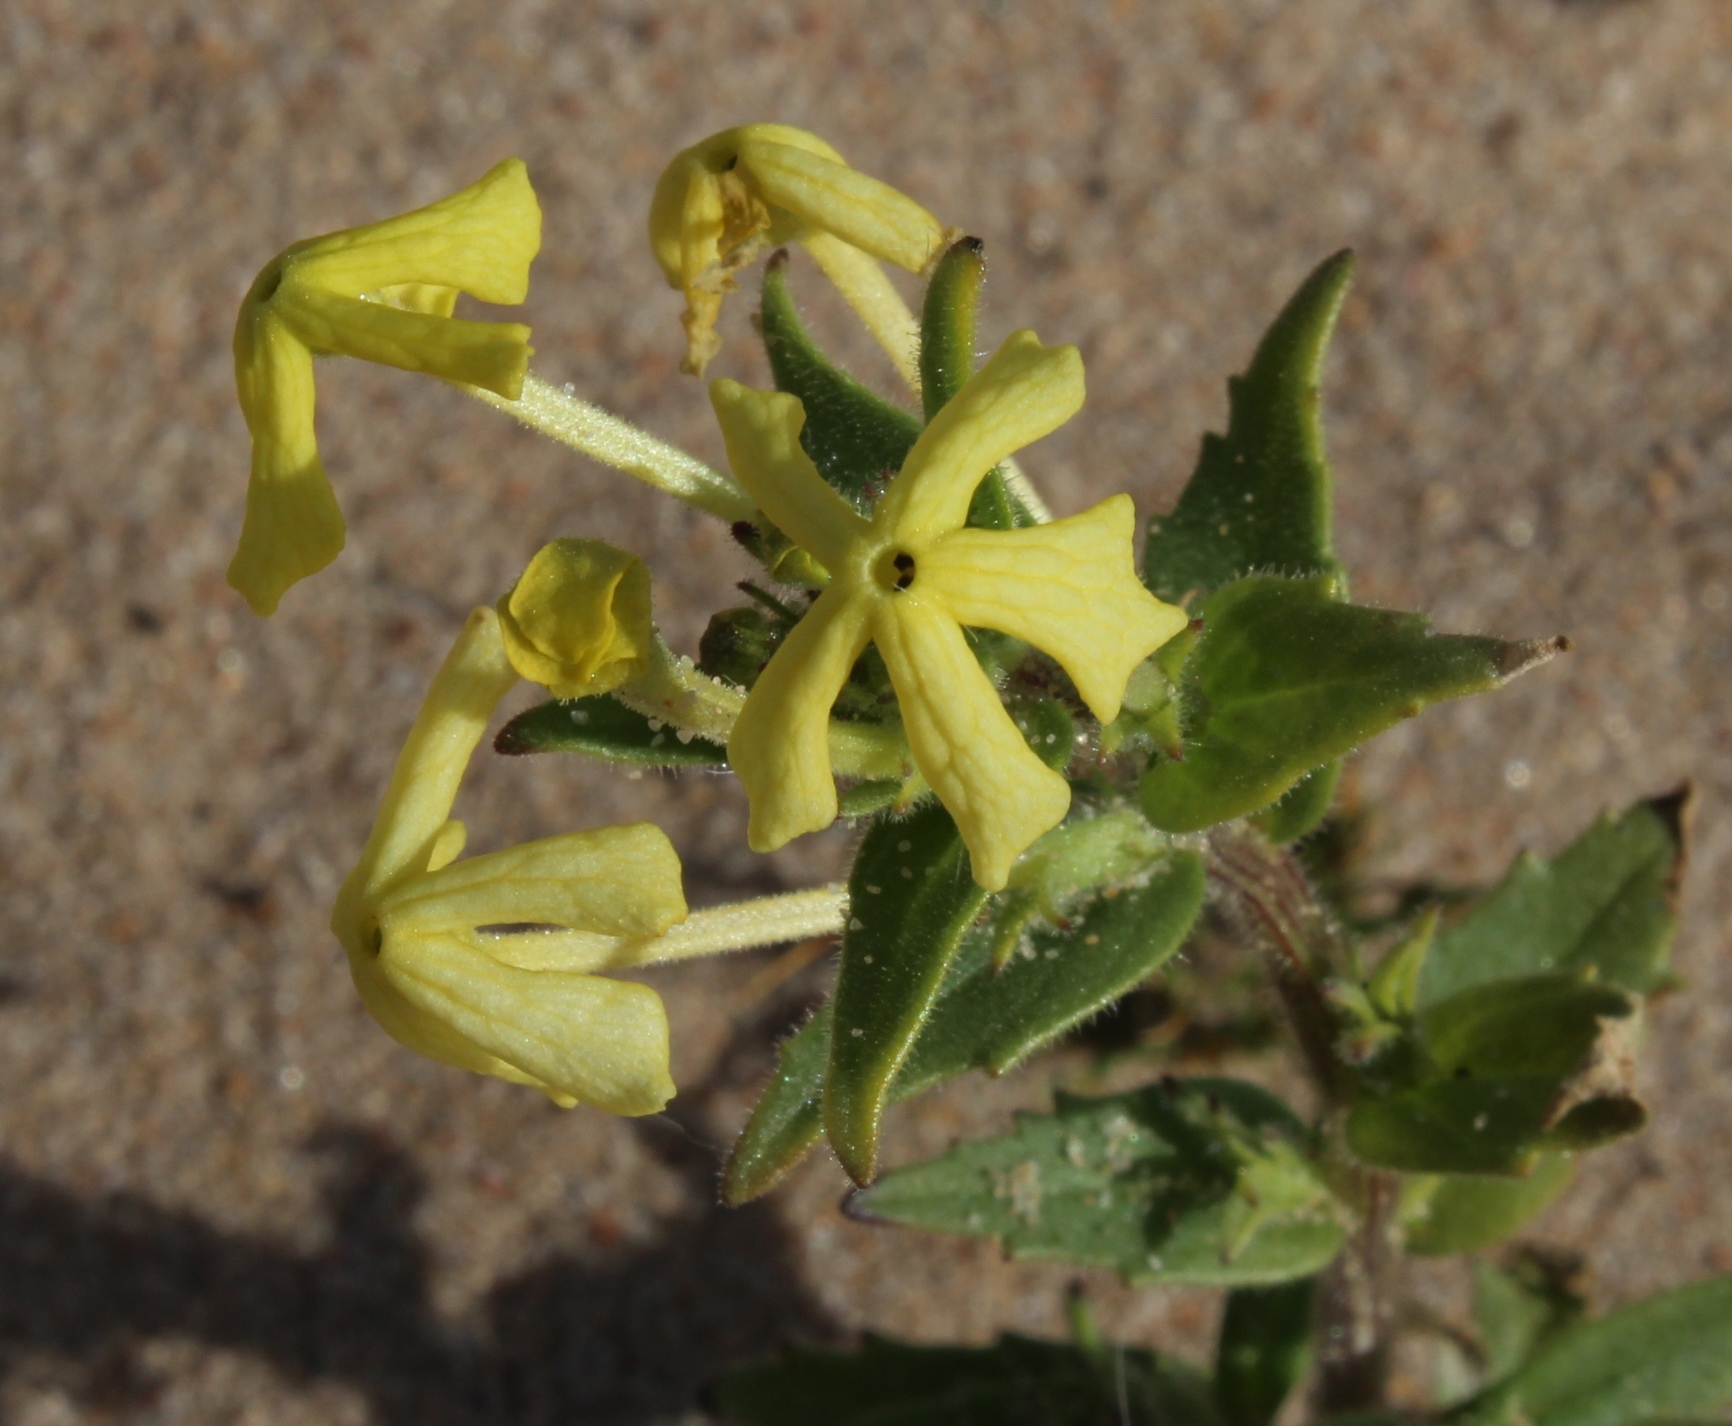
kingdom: Plantae
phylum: Tracheophyta
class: Magnoliopsida
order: Lamiales
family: Scrophulariaceae
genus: Lyperia
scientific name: Lyperia tristis
